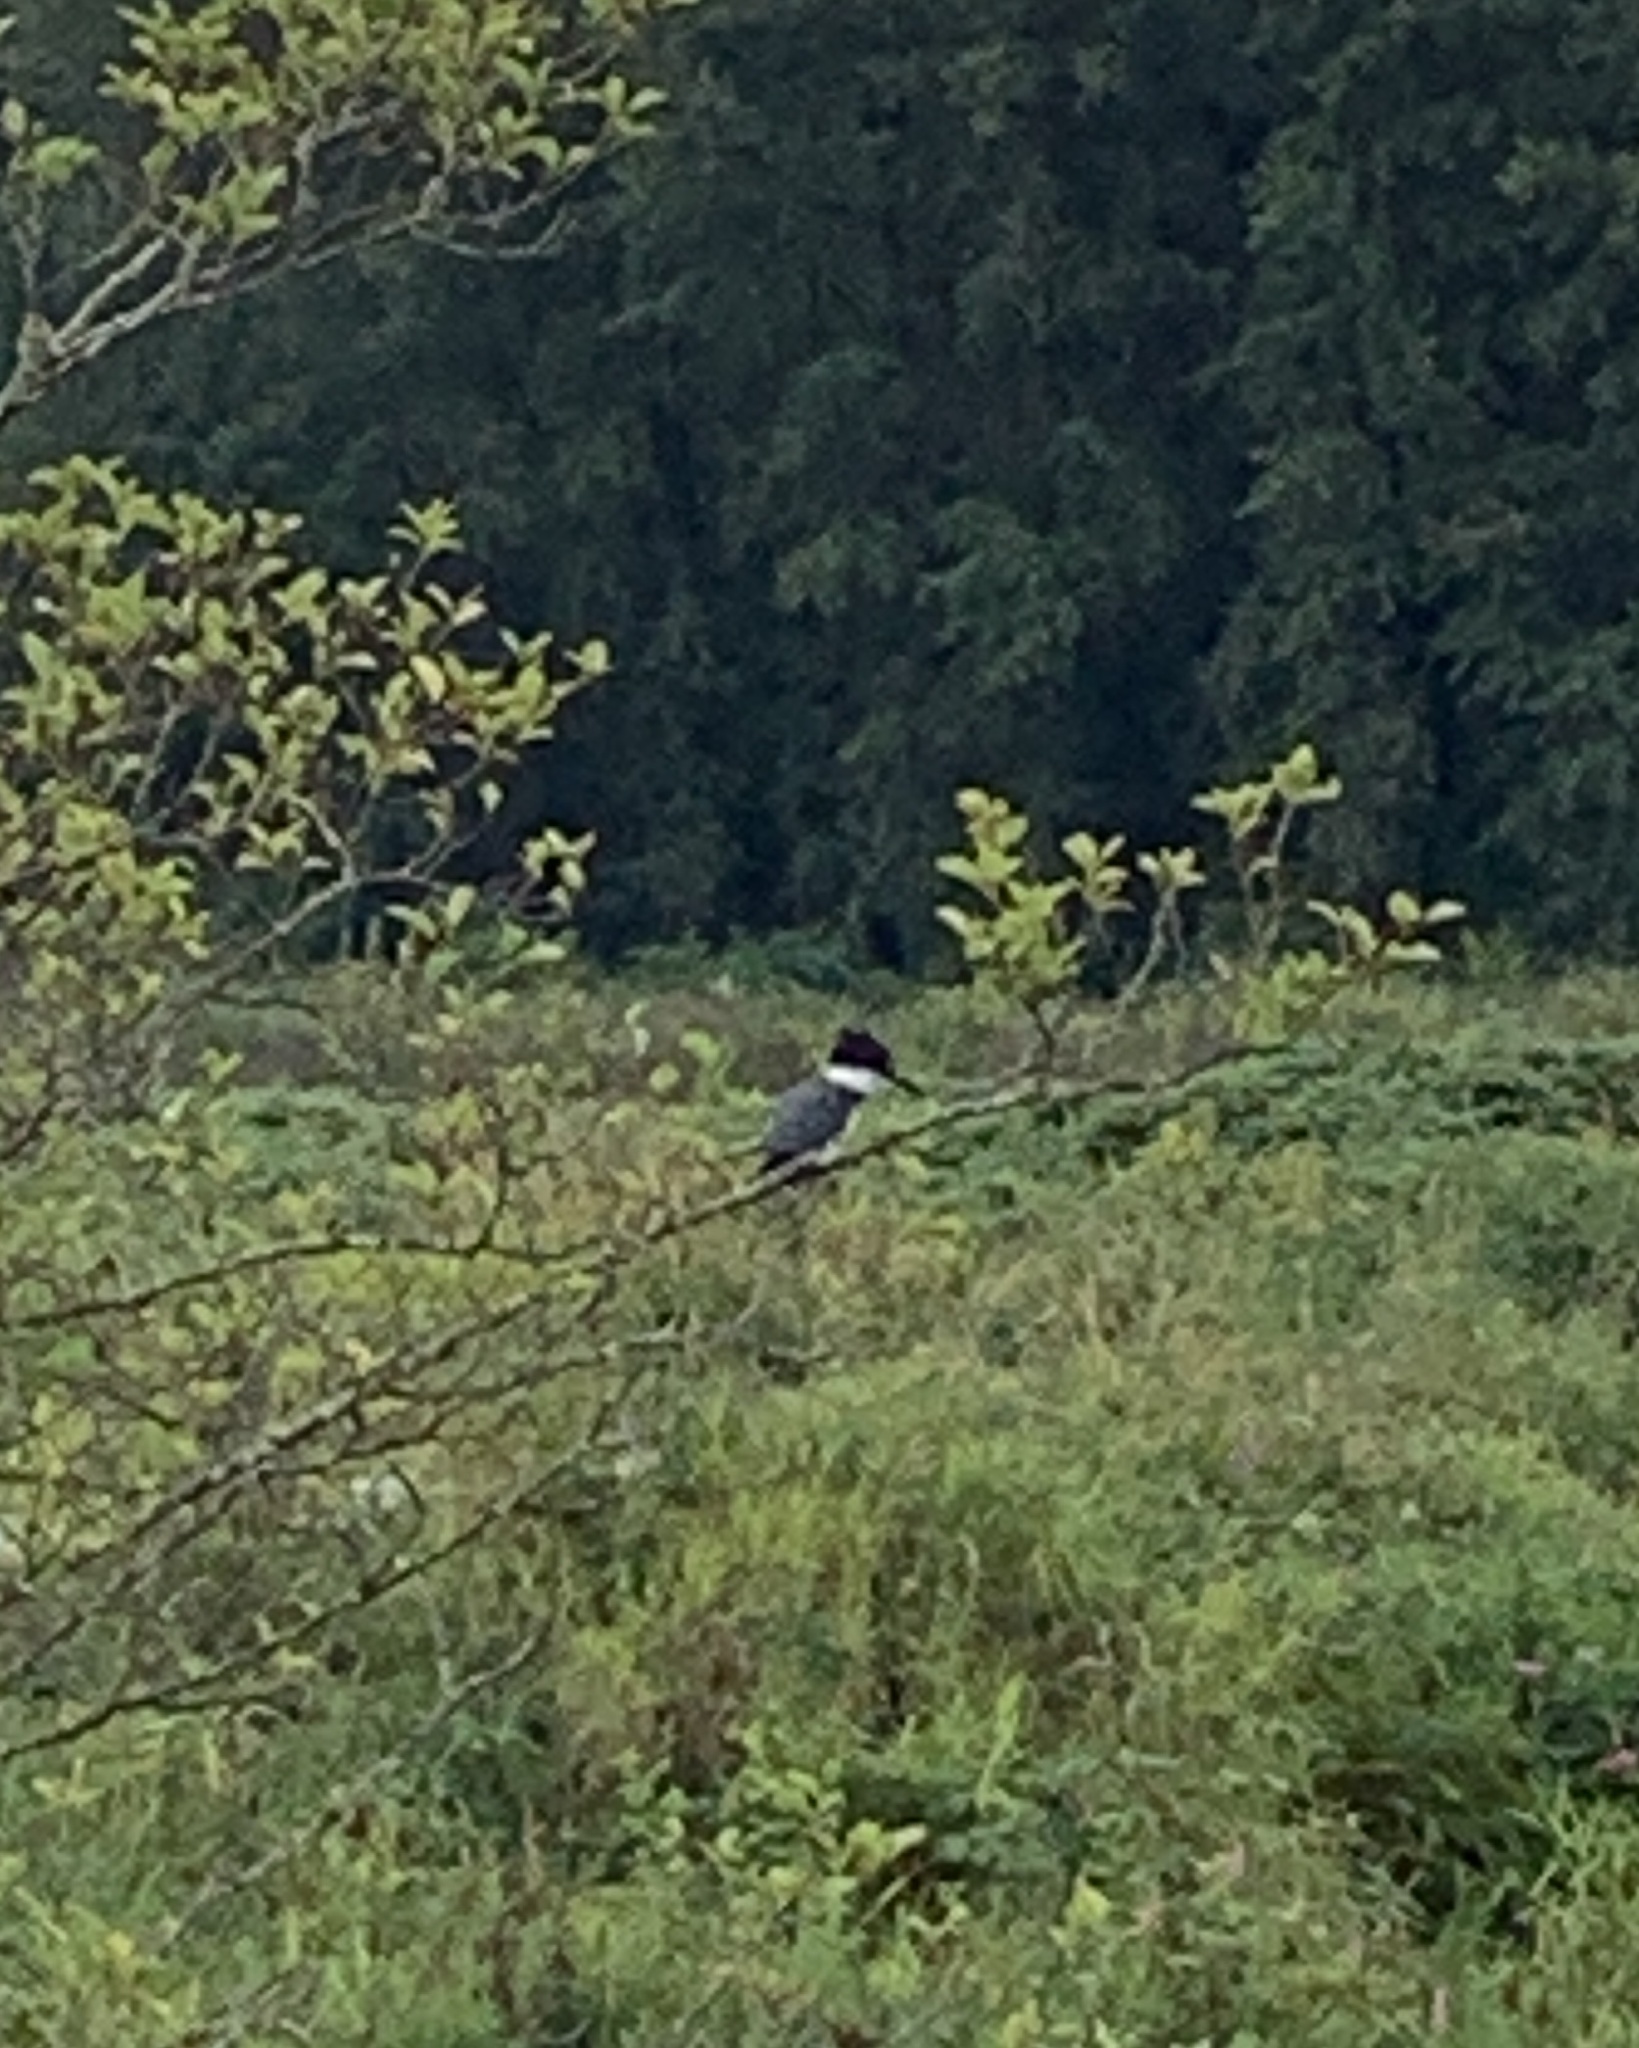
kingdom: Animalia
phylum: Chordata
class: Aves
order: Coraciiformes
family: Alcedinidae
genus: Megaceryle
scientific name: Megaceryle alcyon
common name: Belted kingfisher
